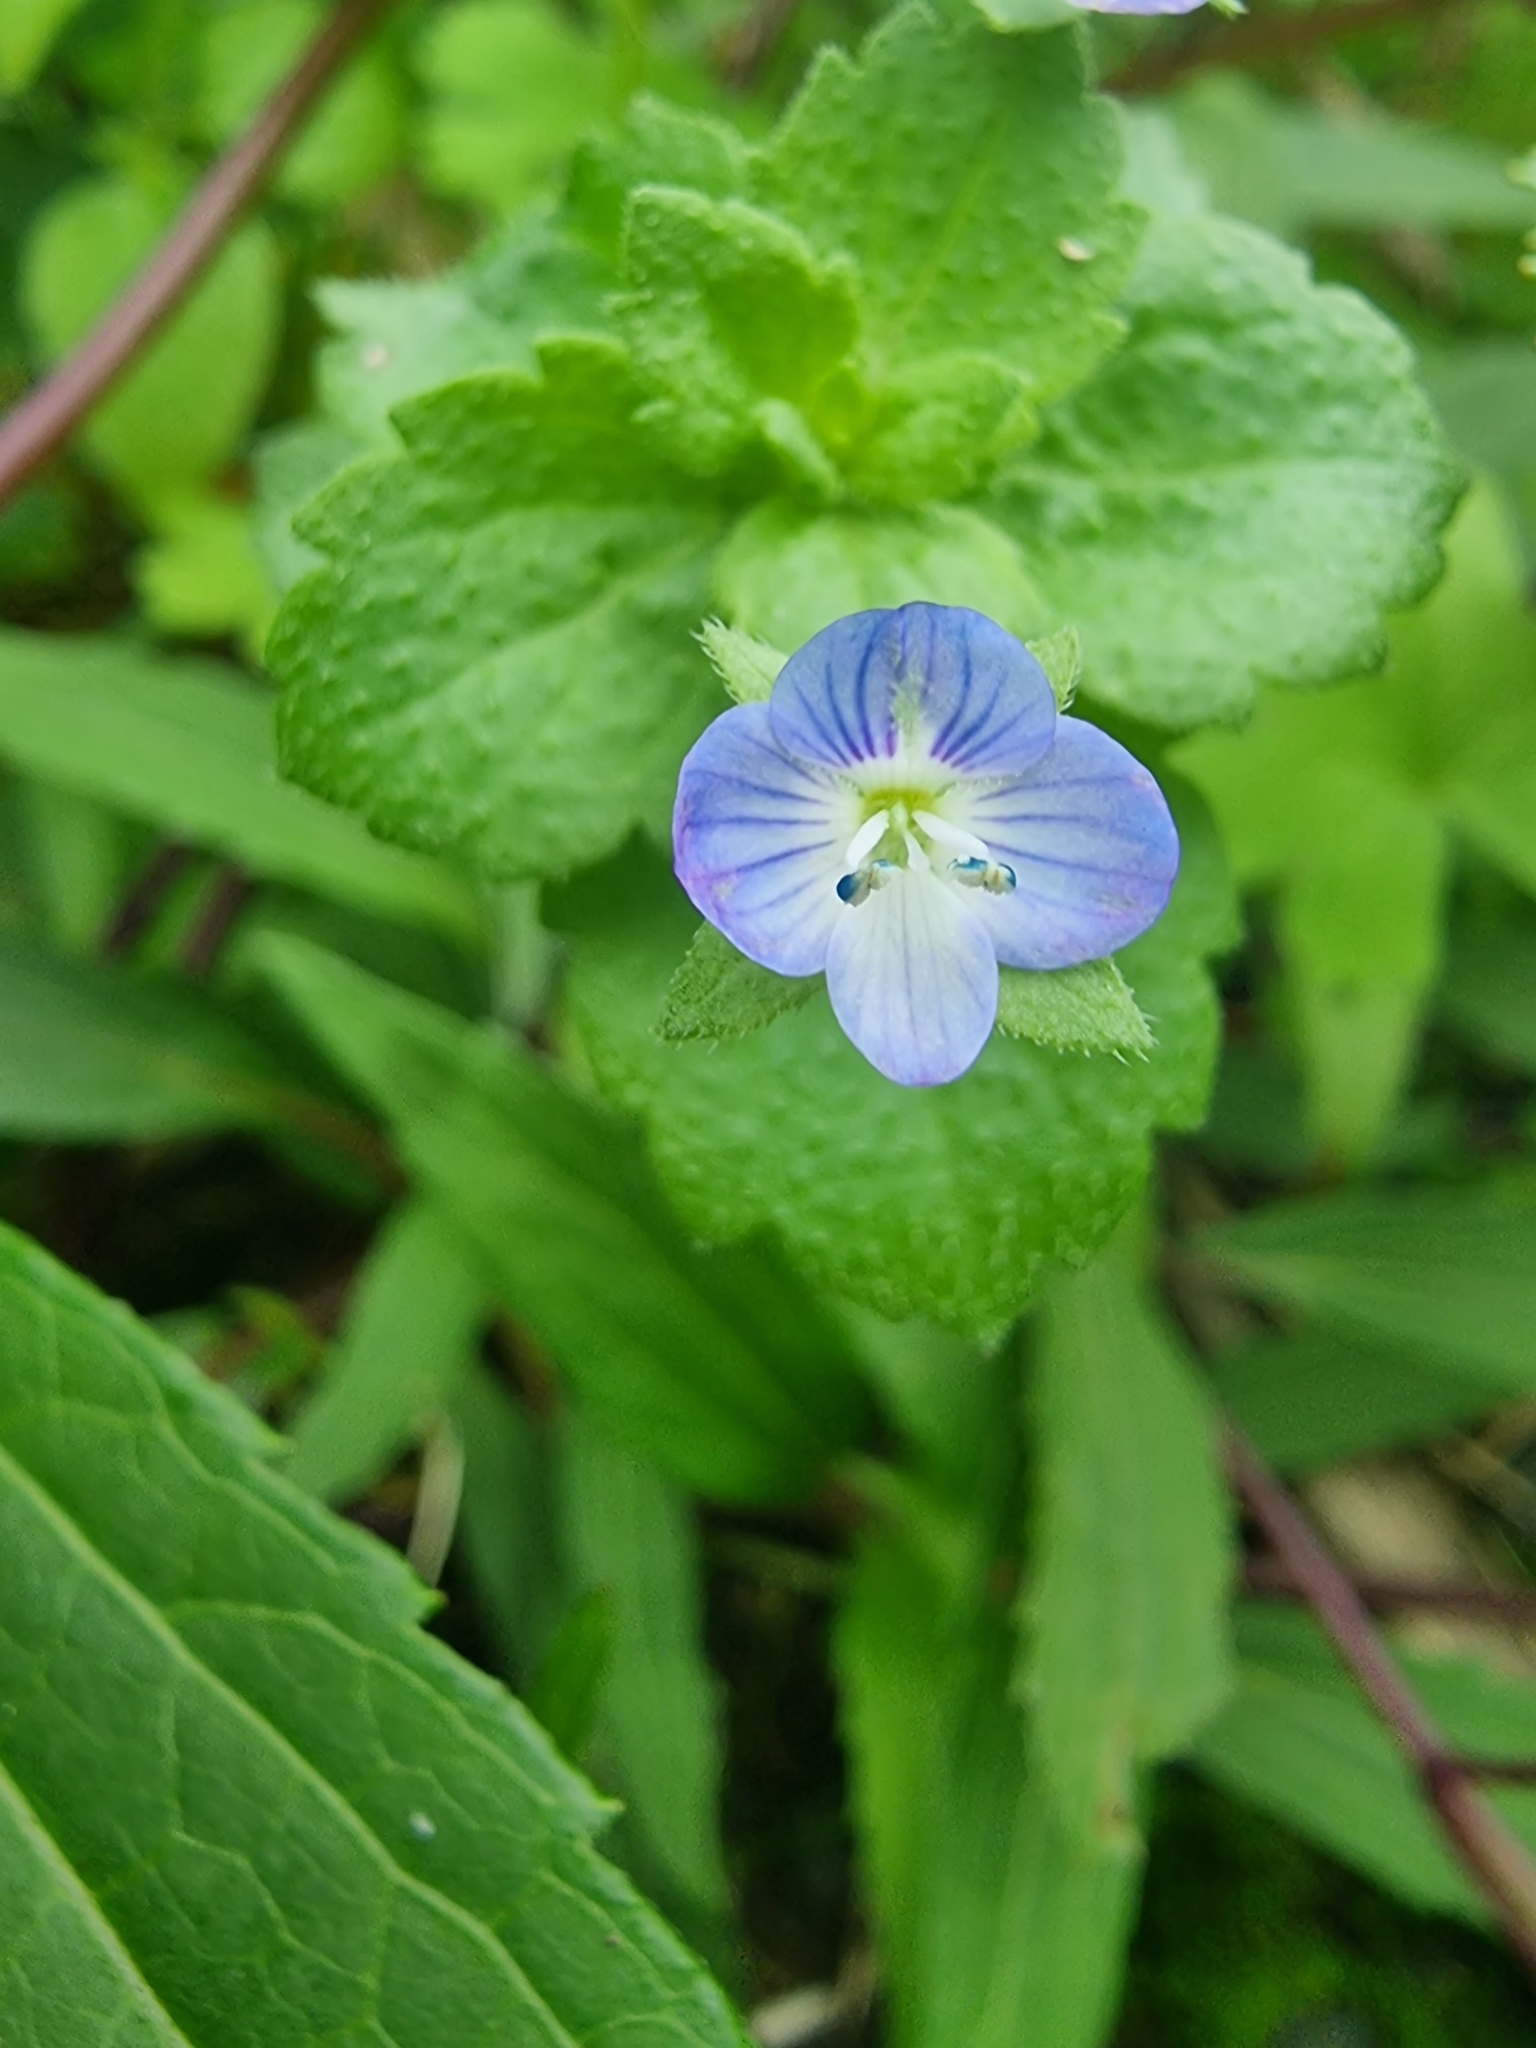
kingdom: Plantae
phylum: Tracheophyta
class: Magnoliopsida
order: Lamiales
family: Plantaginaceae
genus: Veronica
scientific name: Veronica persica
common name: Common field-speedwell
